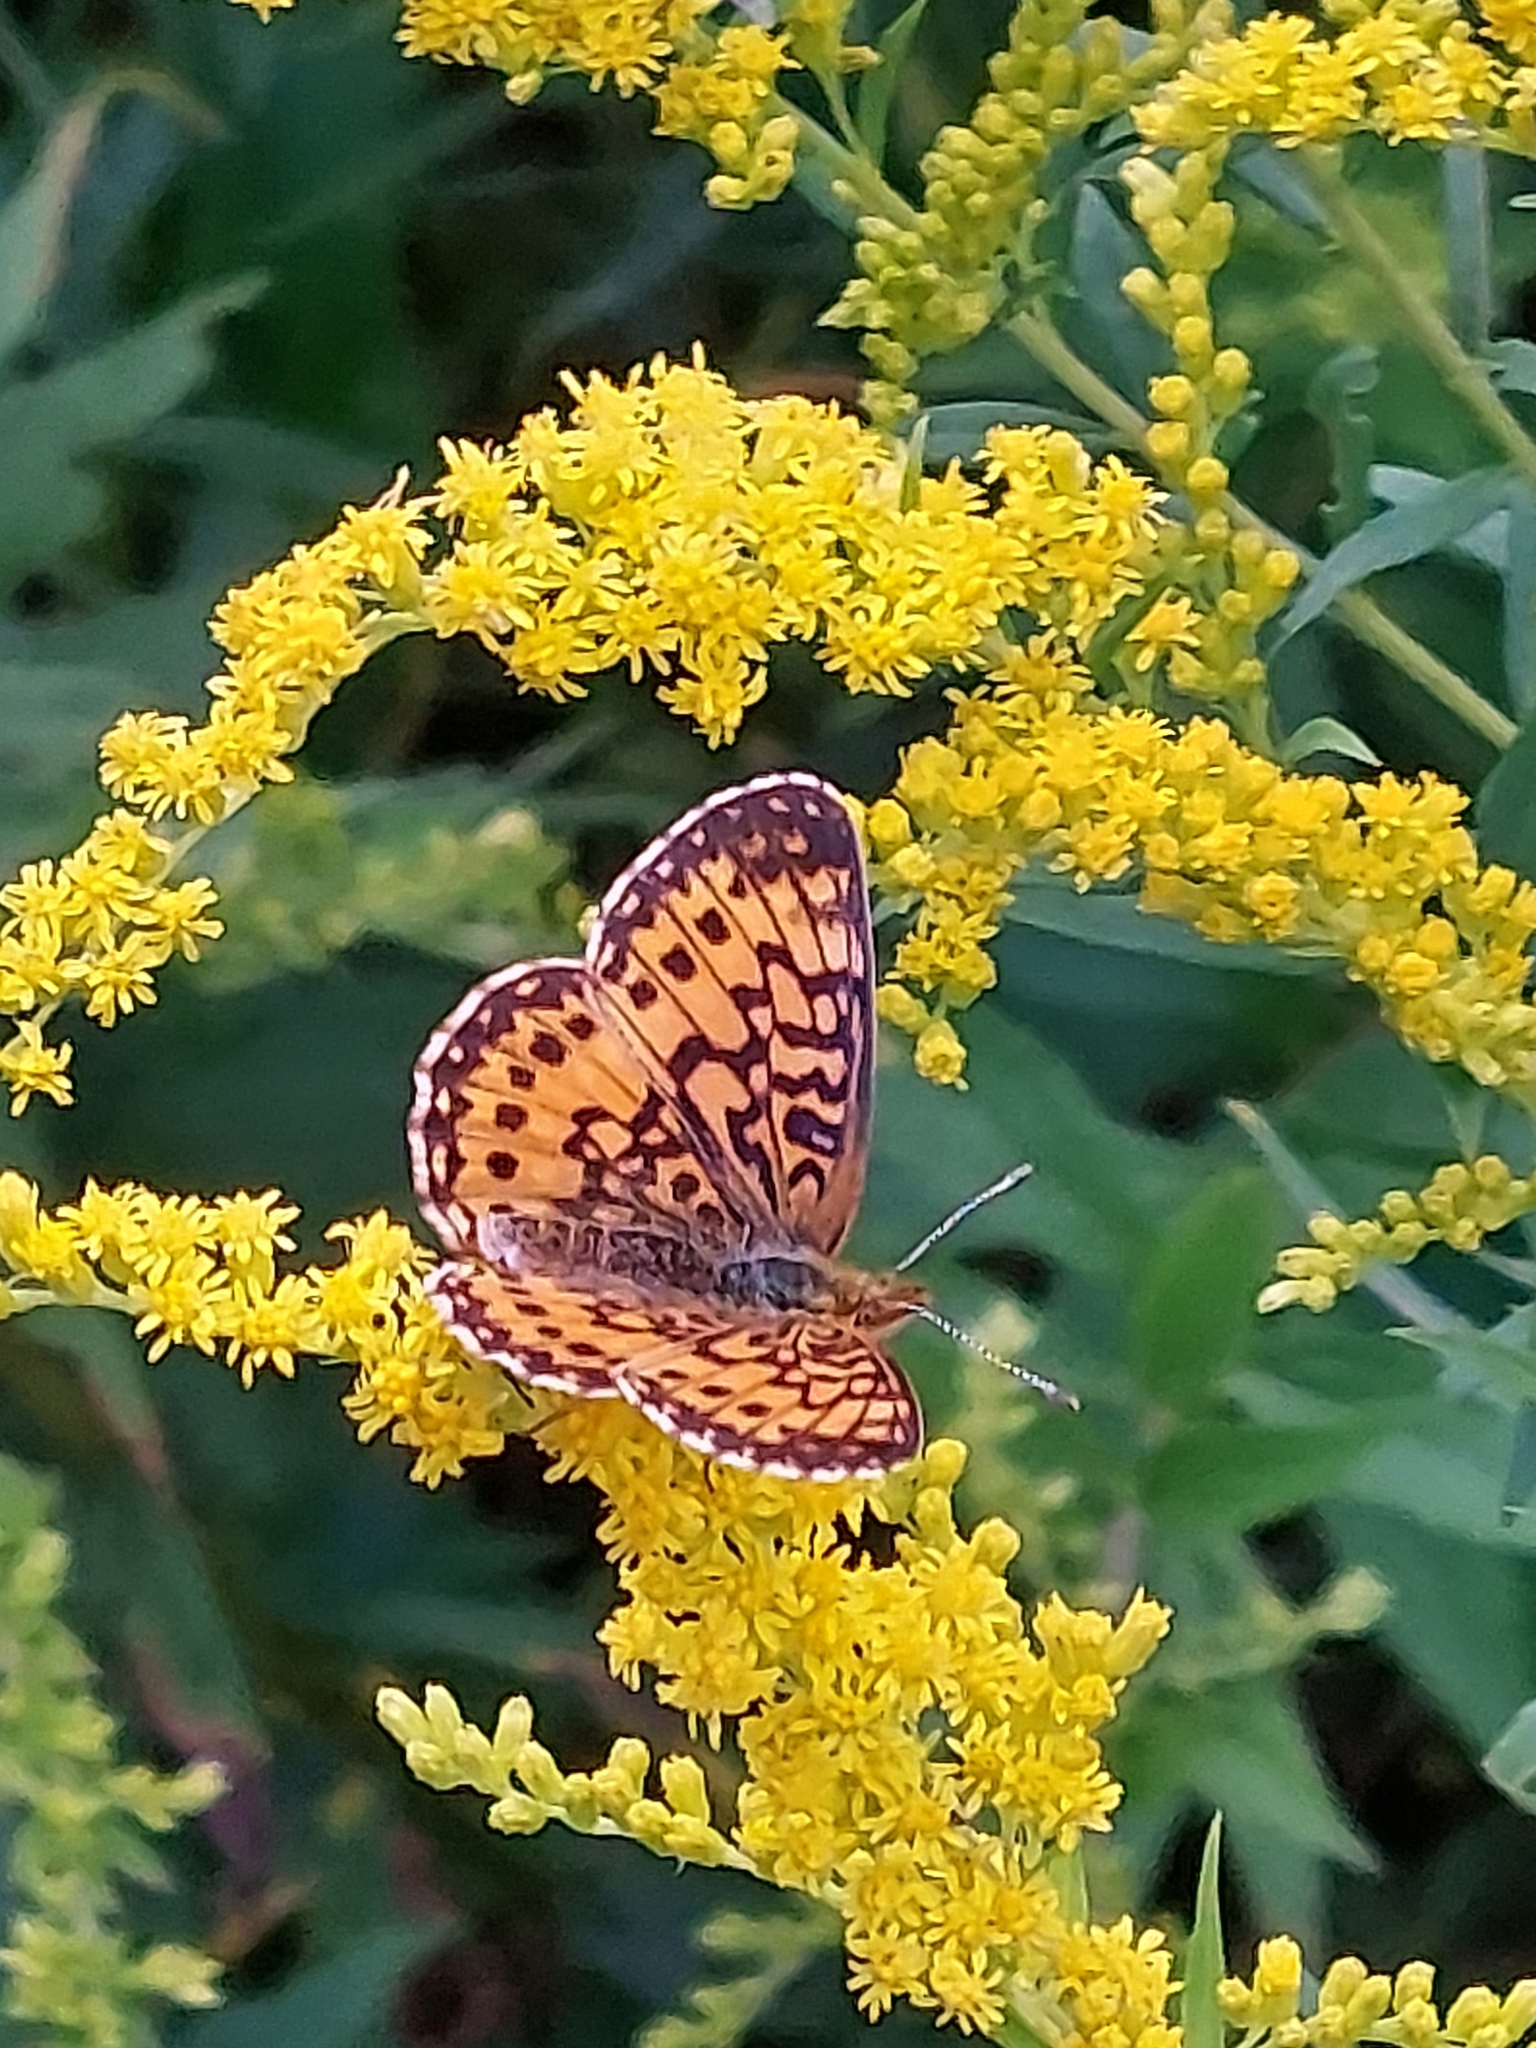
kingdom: Animalia
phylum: Arthropoda
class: Insecta
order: Lepidoptera
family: Nymphalidae
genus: Boloria
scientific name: Boloria
